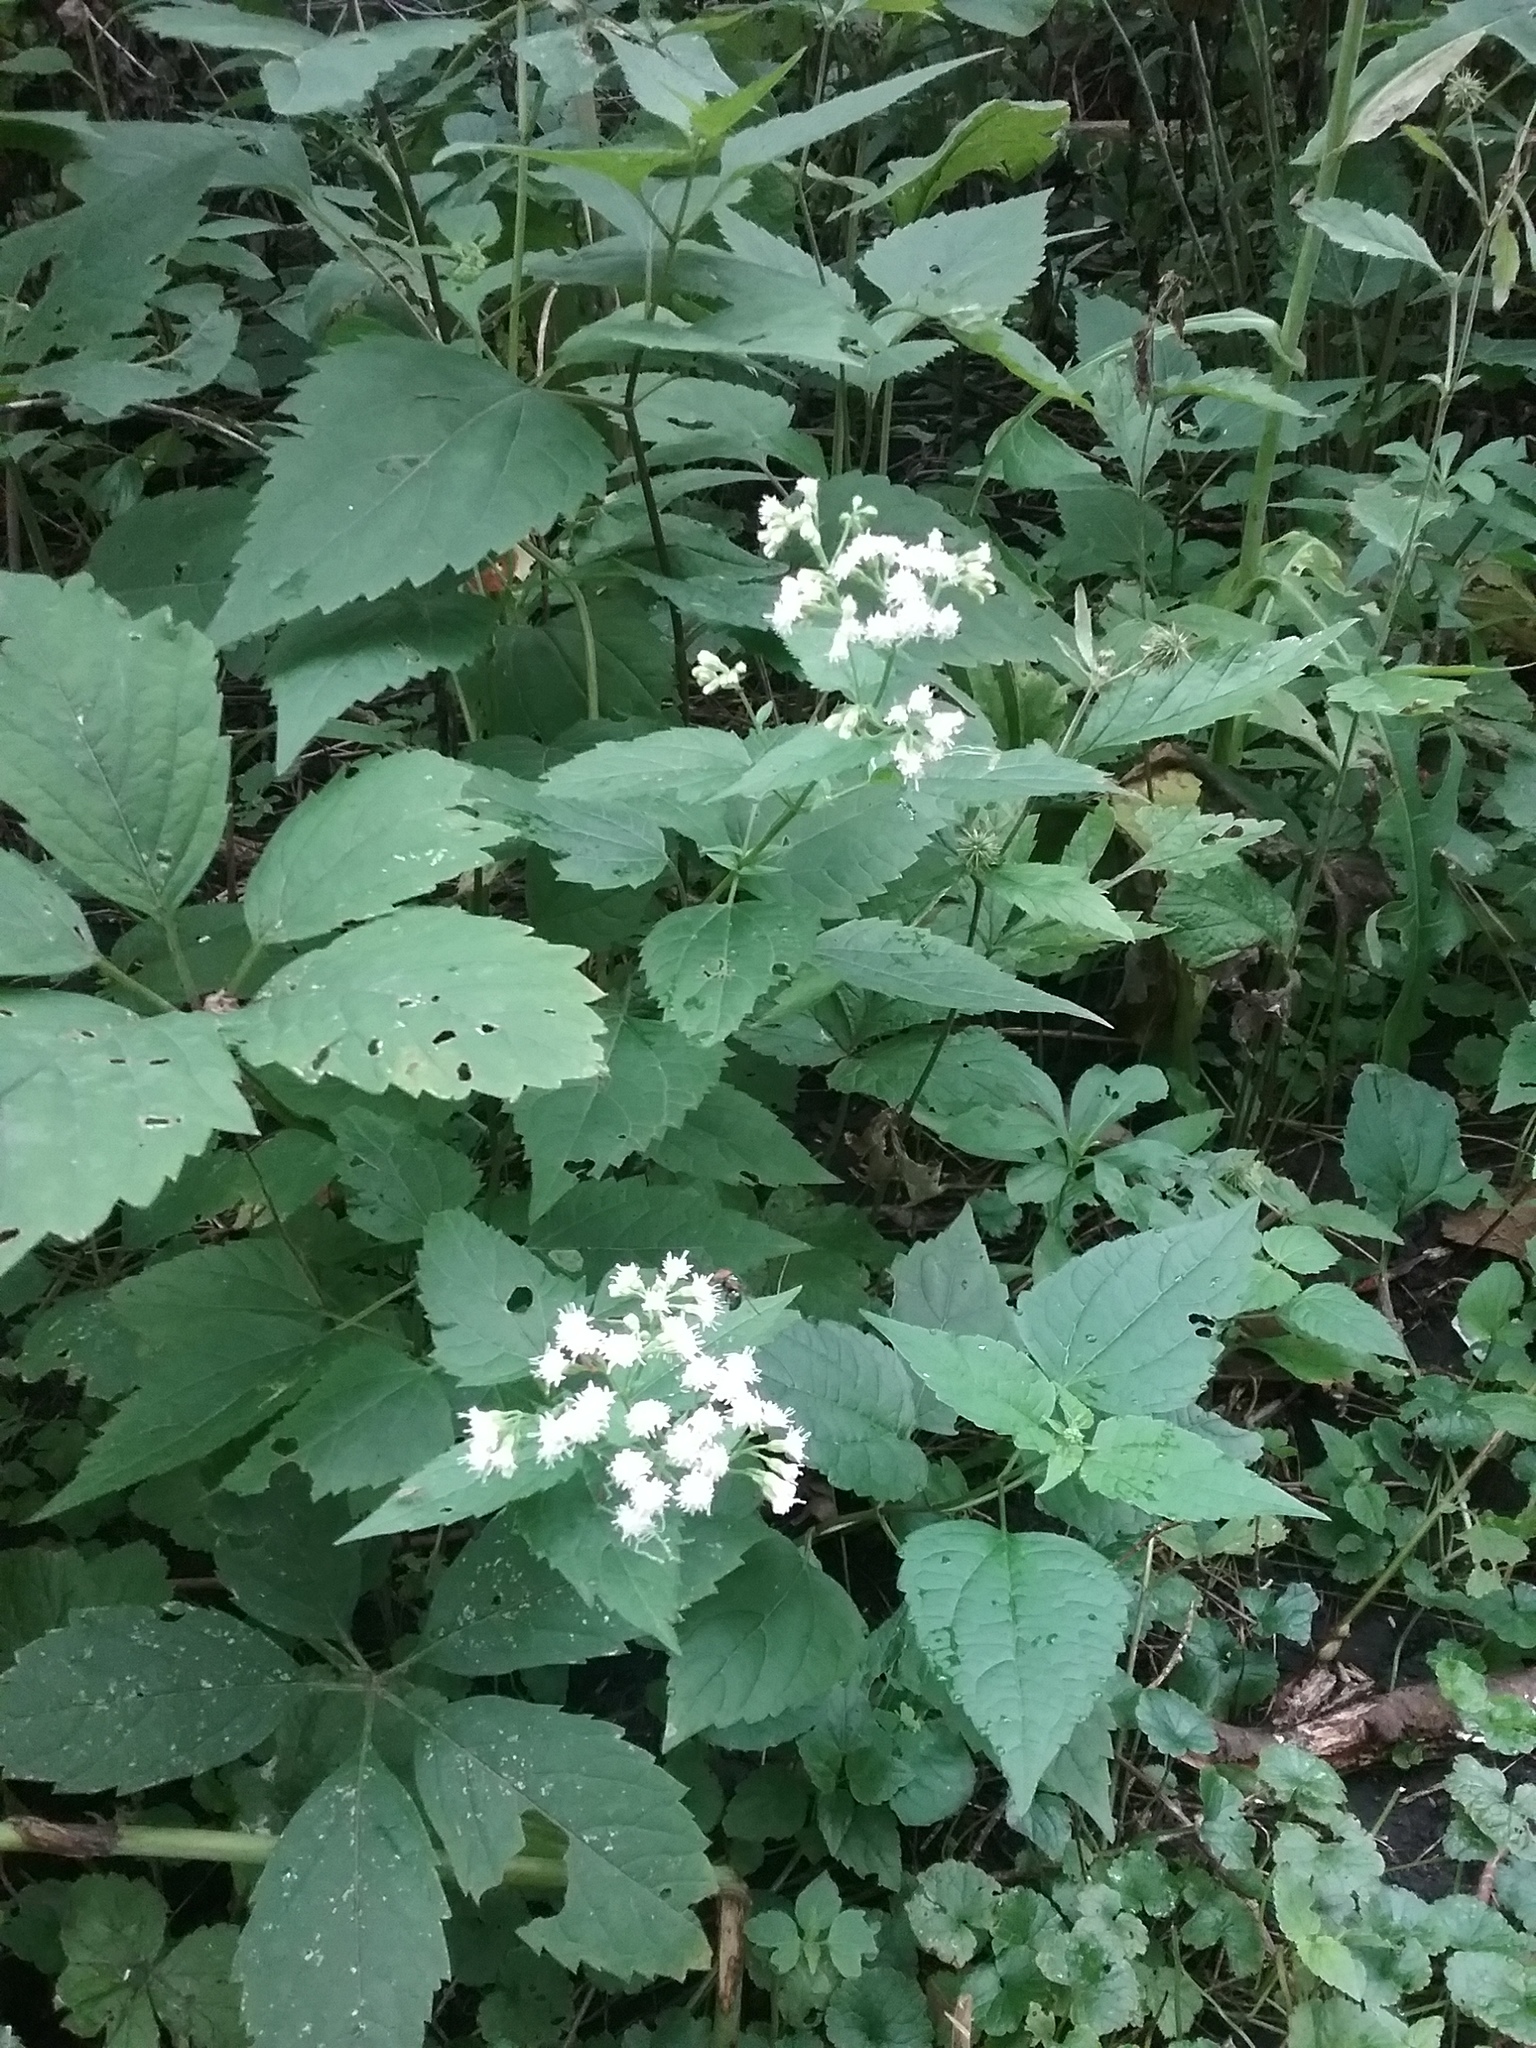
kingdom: Plantae
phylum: Tracheophyta
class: Magnoliopsida
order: Asterales
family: Asteraceae
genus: Ageratina
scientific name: Ageratina altissima
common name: White snakeroot
